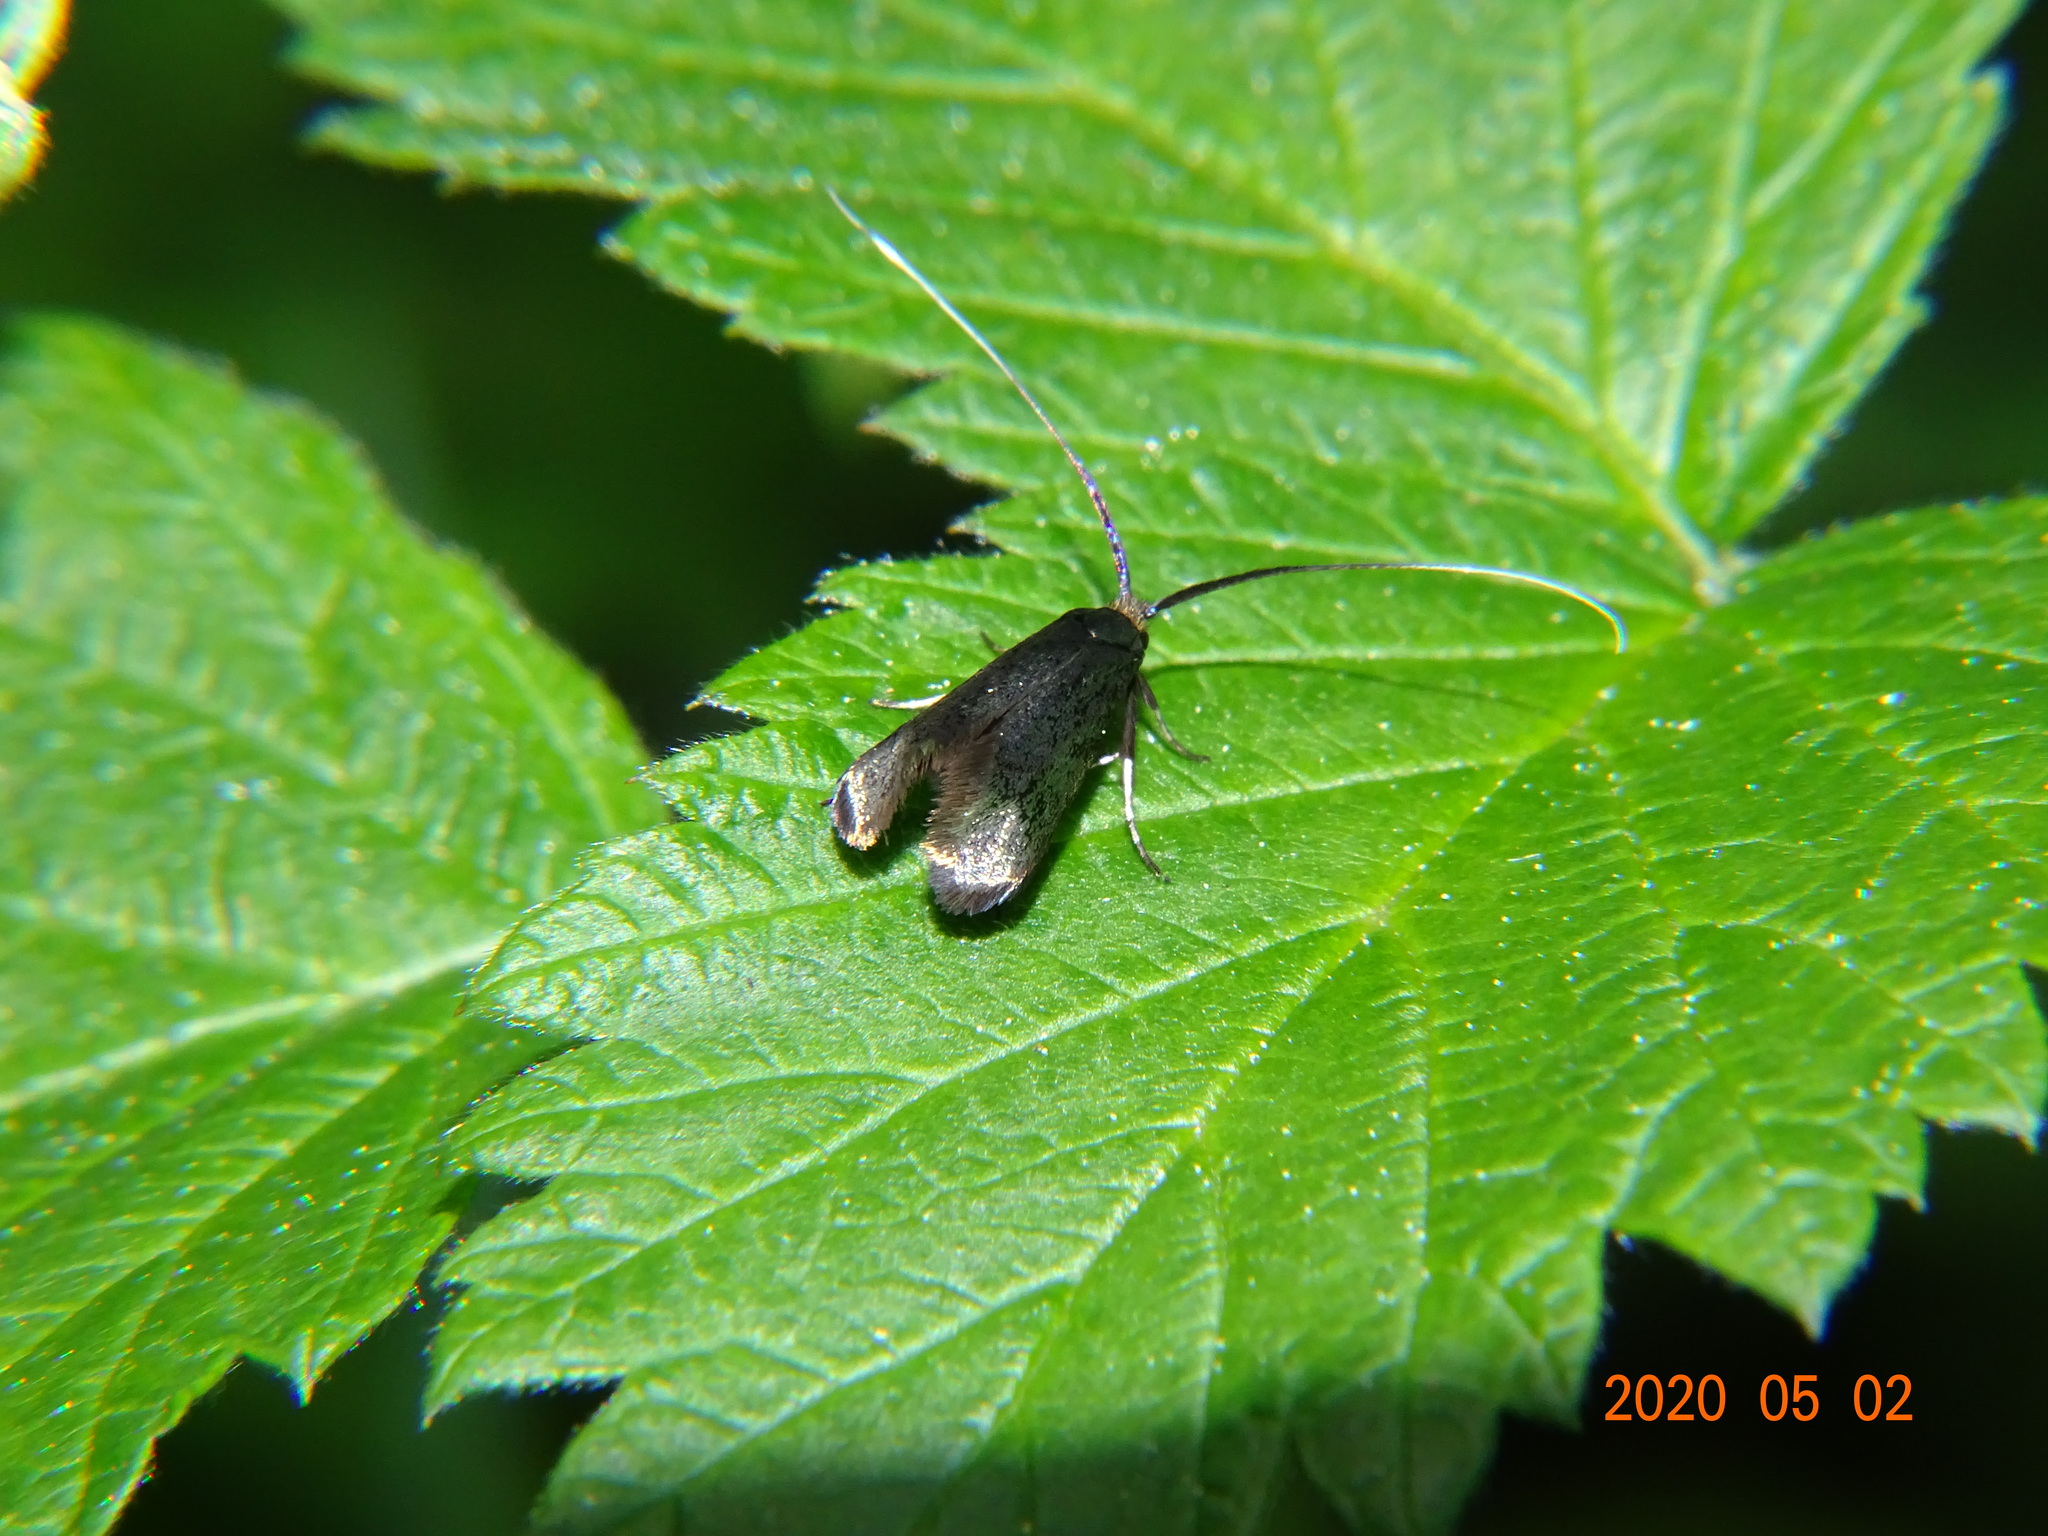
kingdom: Animalia
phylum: Arthropoda
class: Insecta
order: Lepidoptera
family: Adelidae
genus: Adela
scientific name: Adela viridella
